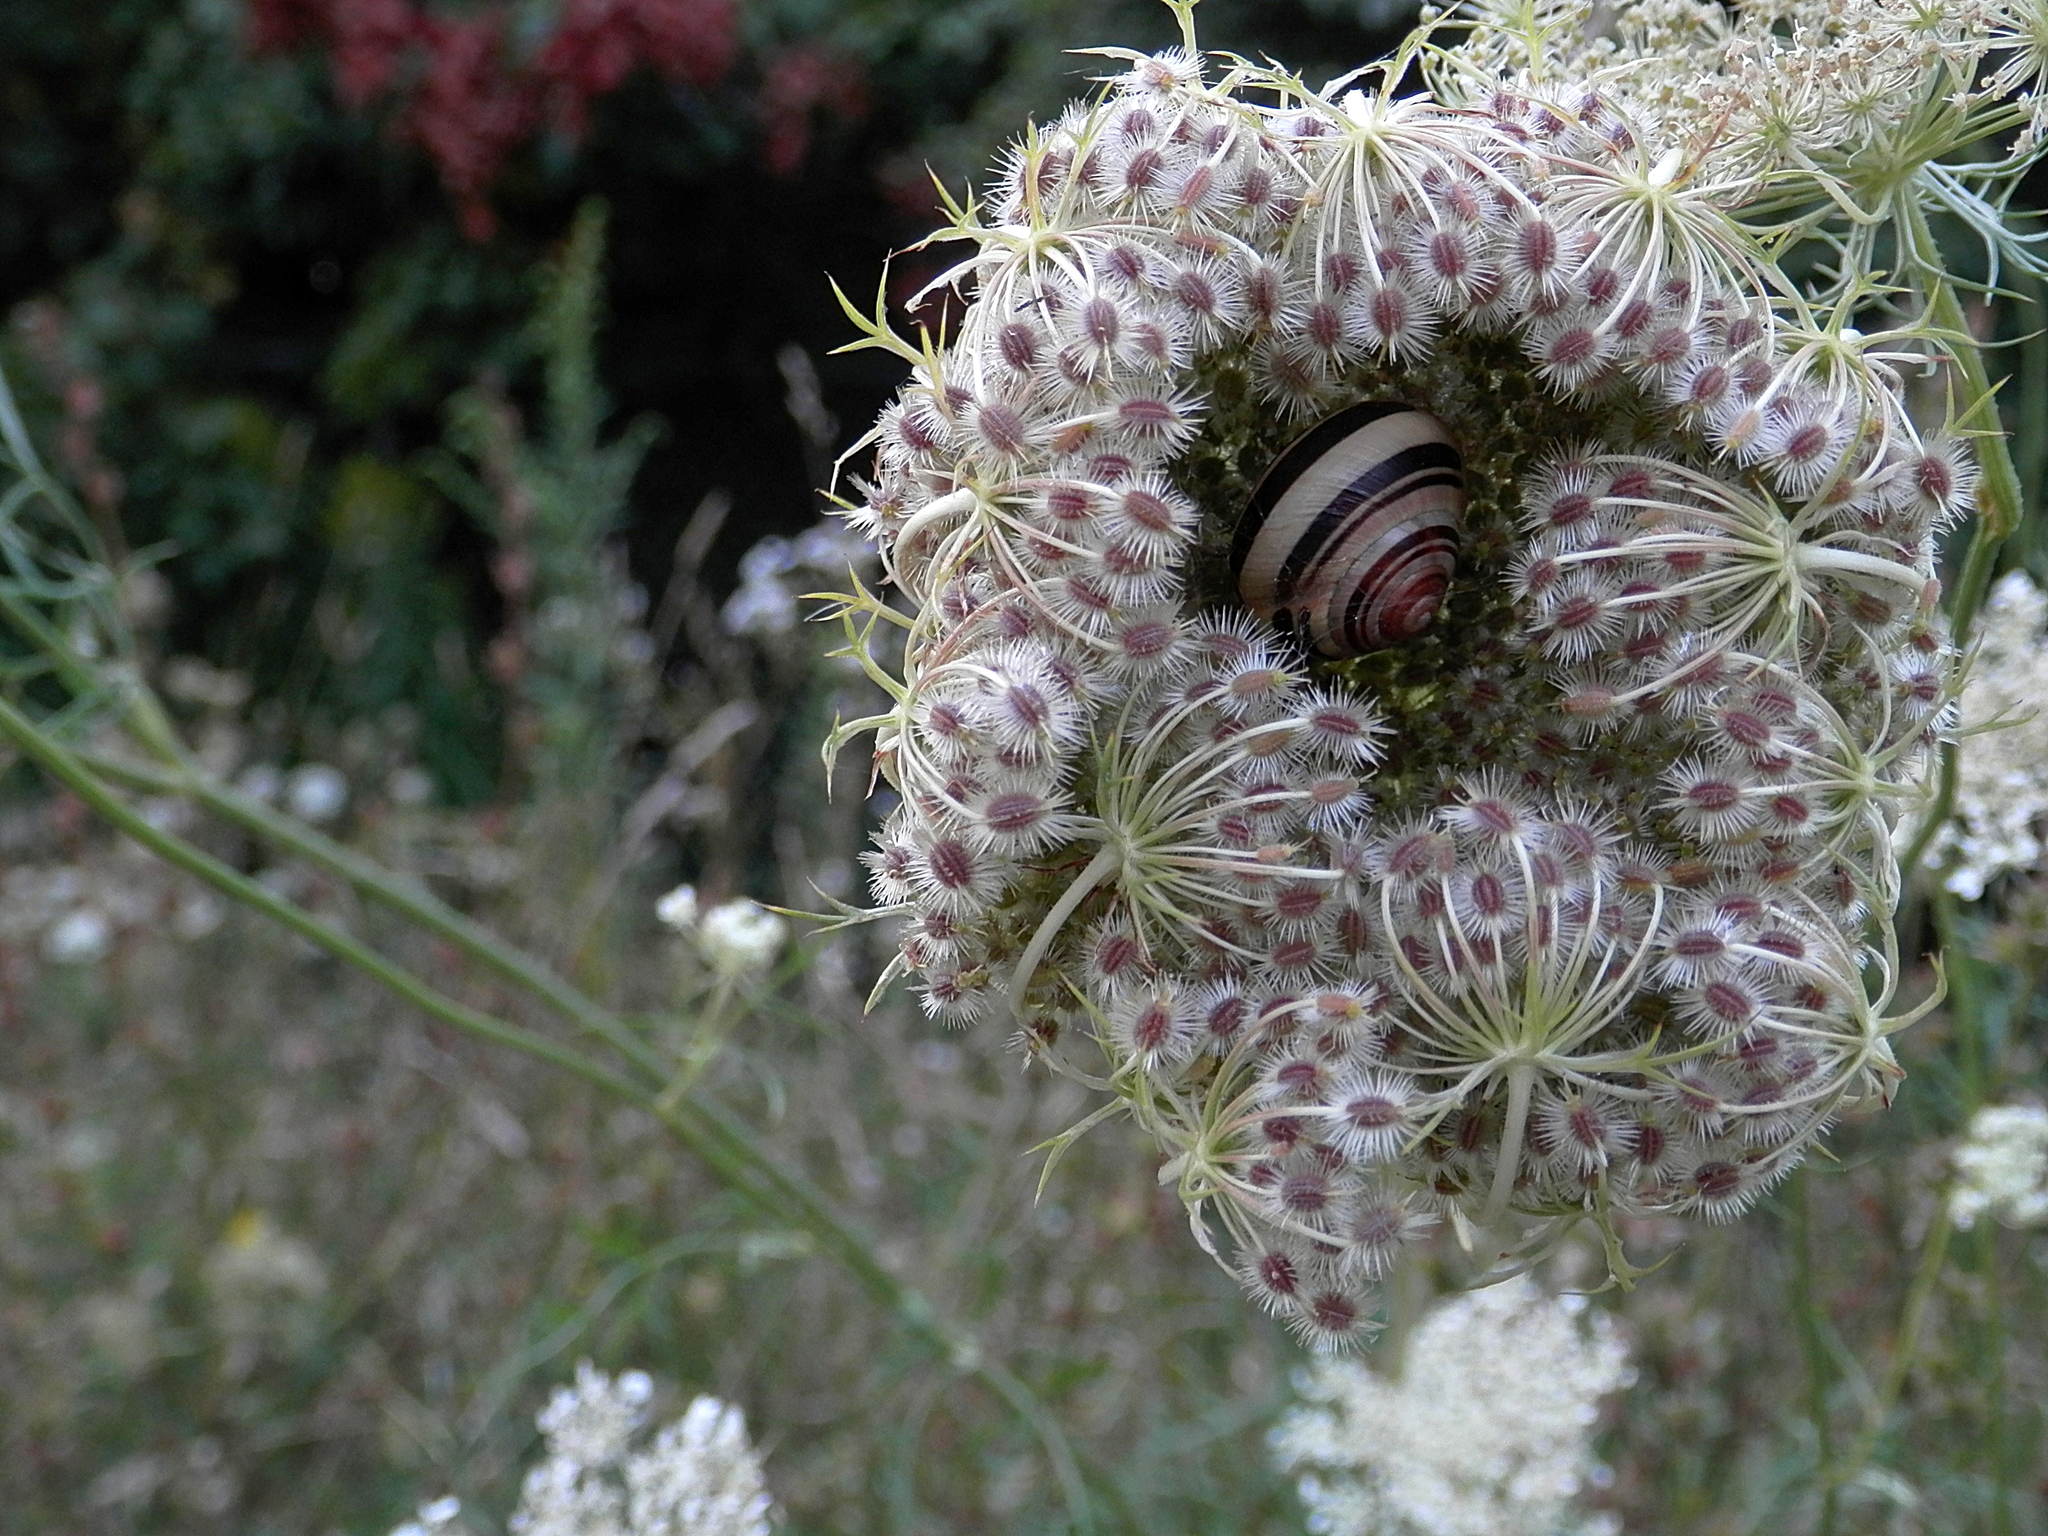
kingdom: Plantae
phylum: Tracheophyta
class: Magnoliopsida
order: Apiales
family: Apiaceae
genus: Daucus
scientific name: Daucus carota
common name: Wild carrot
